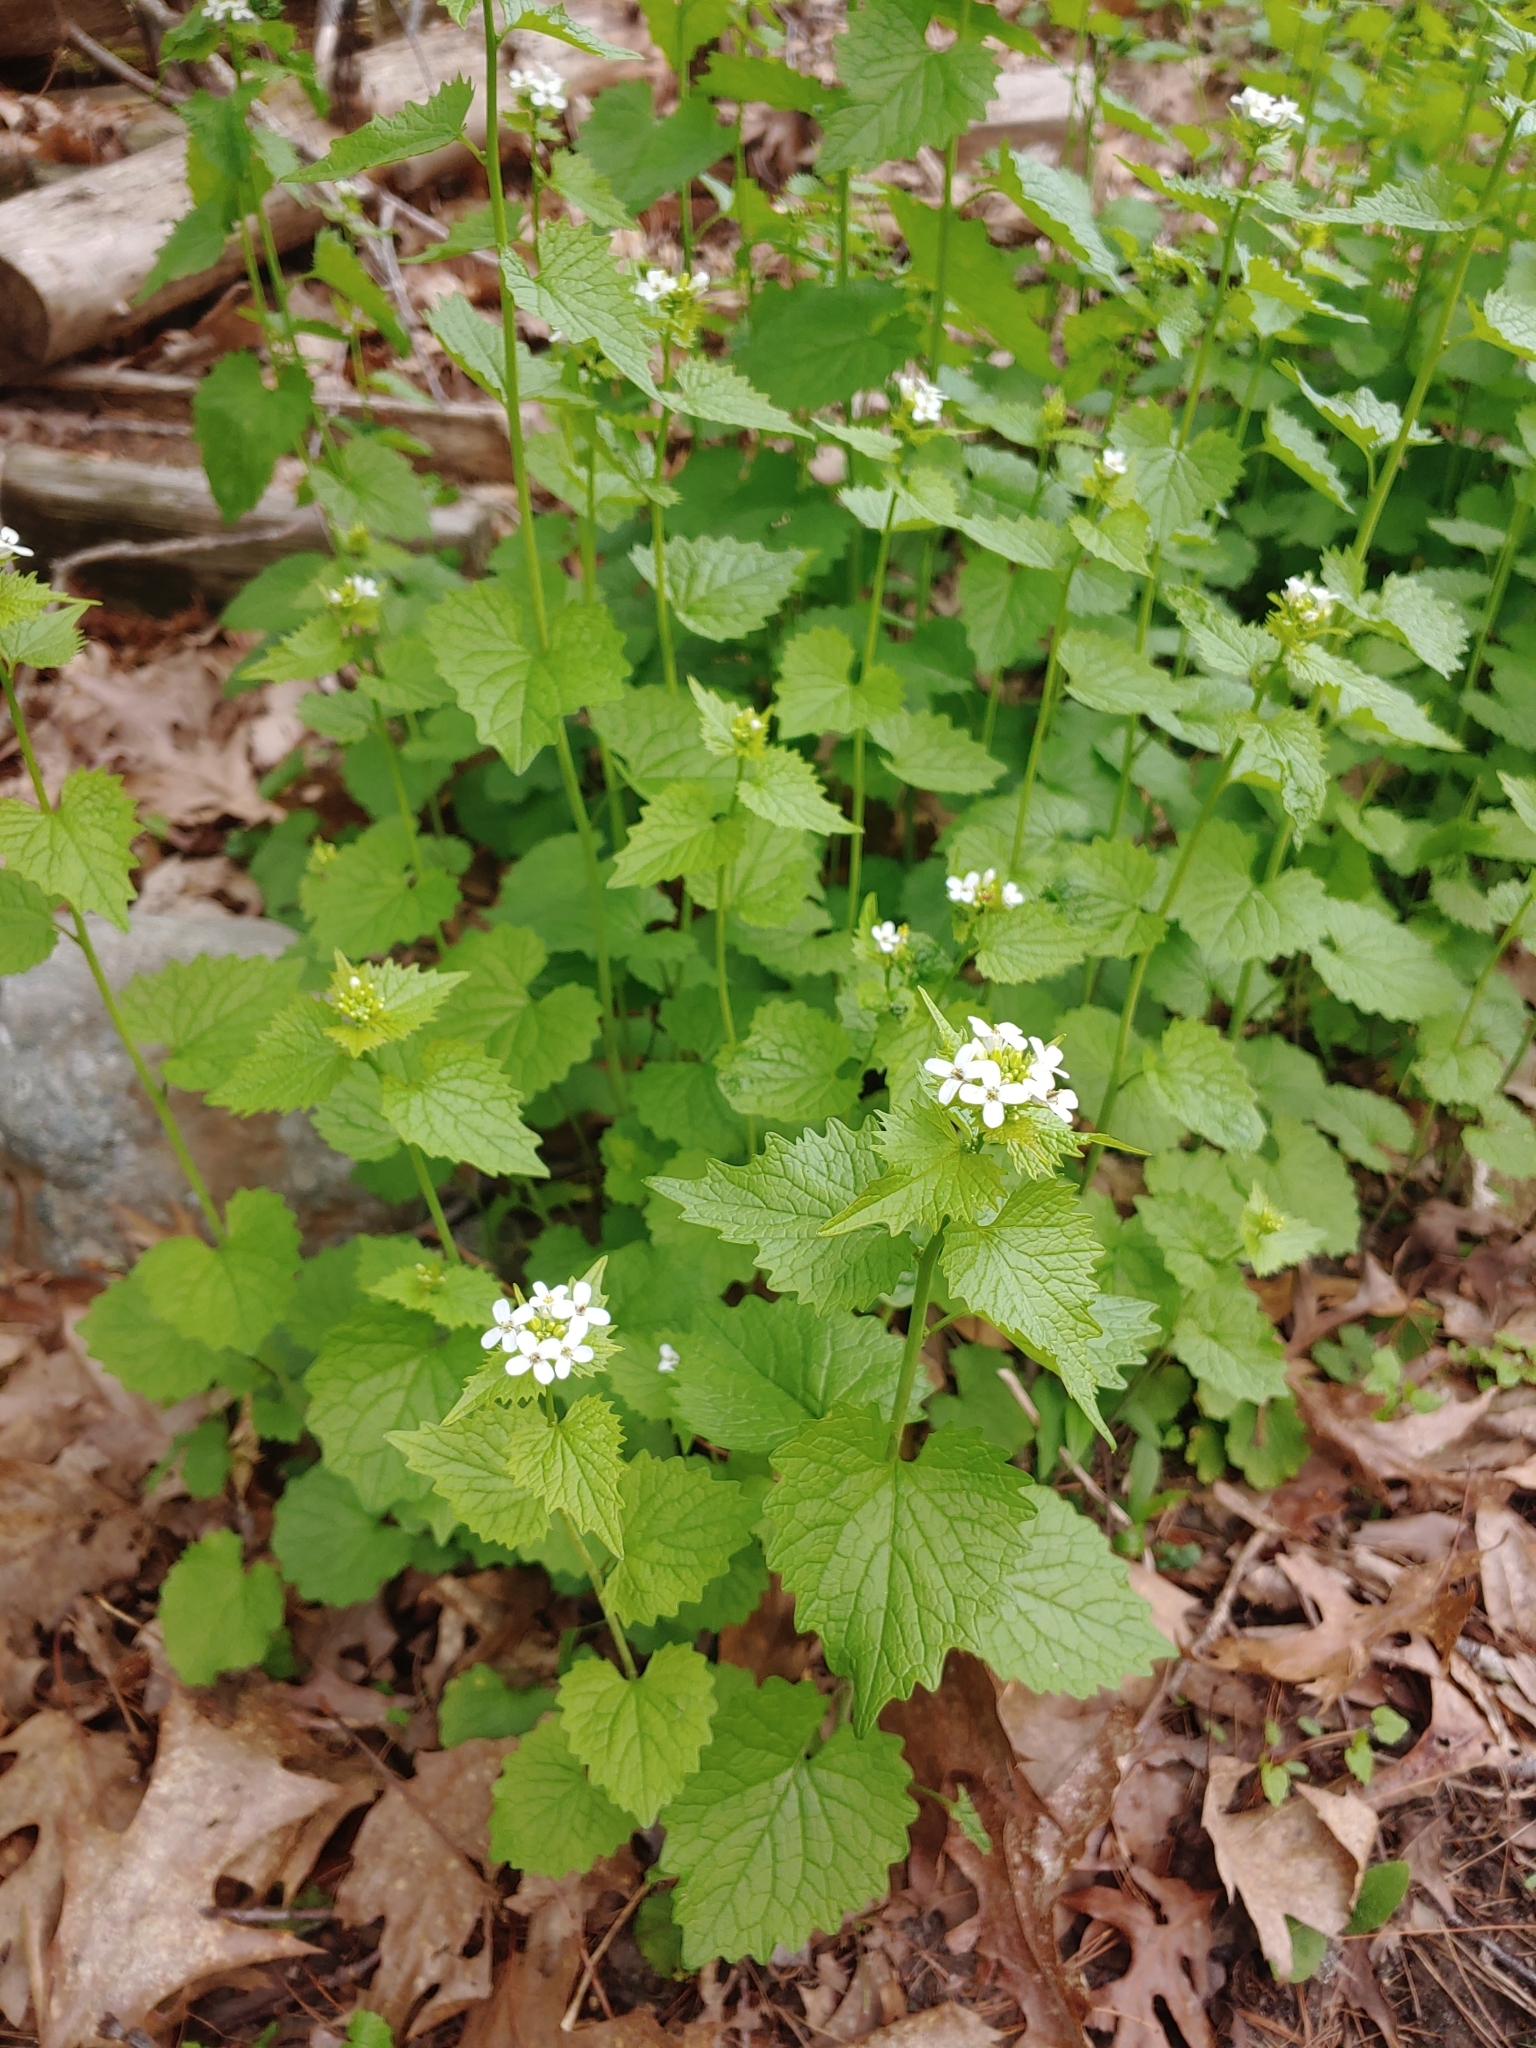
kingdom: Plantae
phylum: Tracheophyta
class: Magnoliopsida
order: Brassicales
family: Brassicaceae
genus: Alliaria
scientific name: Alliaria petiolata
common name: Garlic mustard
